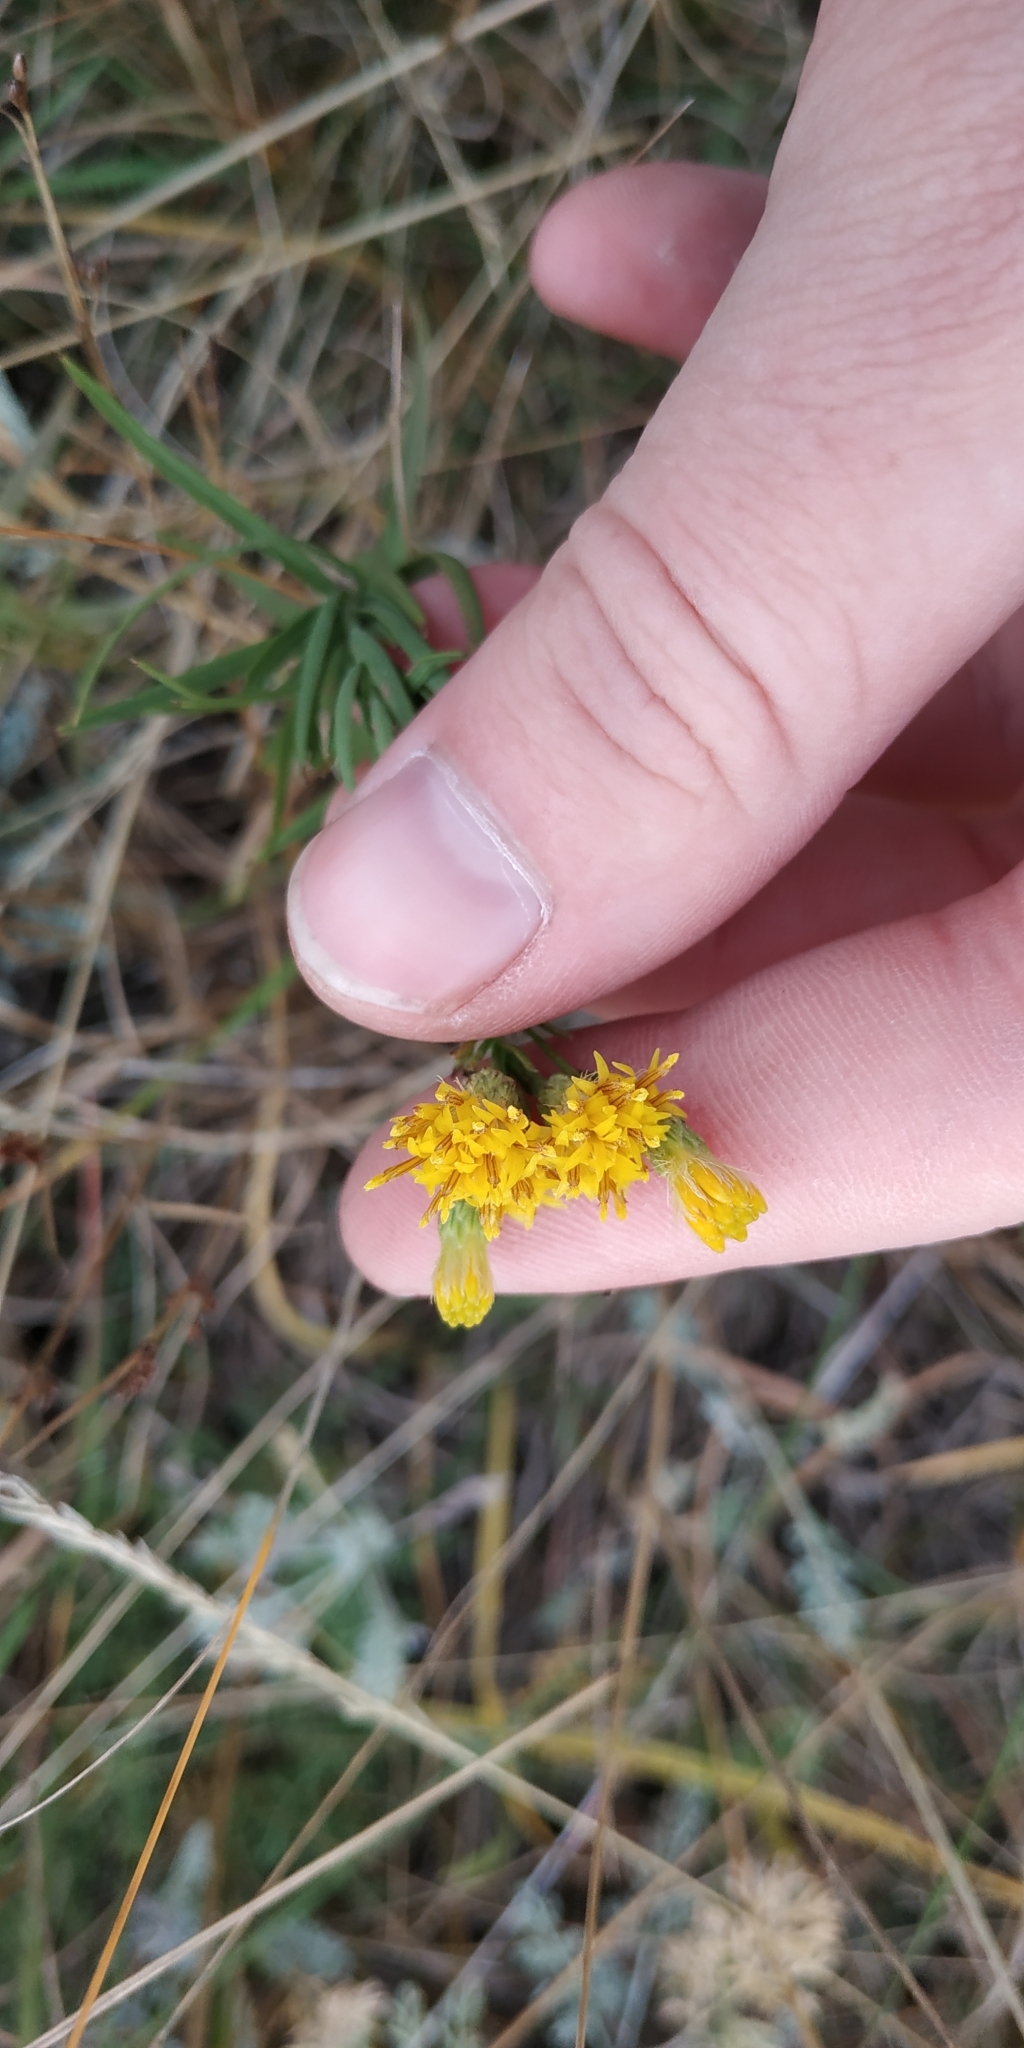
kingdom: Plantae
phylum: Tracheophyta
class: Magnoliopsida
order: Asterales
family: Asteraceae
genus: Galatella
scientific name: Galatella biflora
